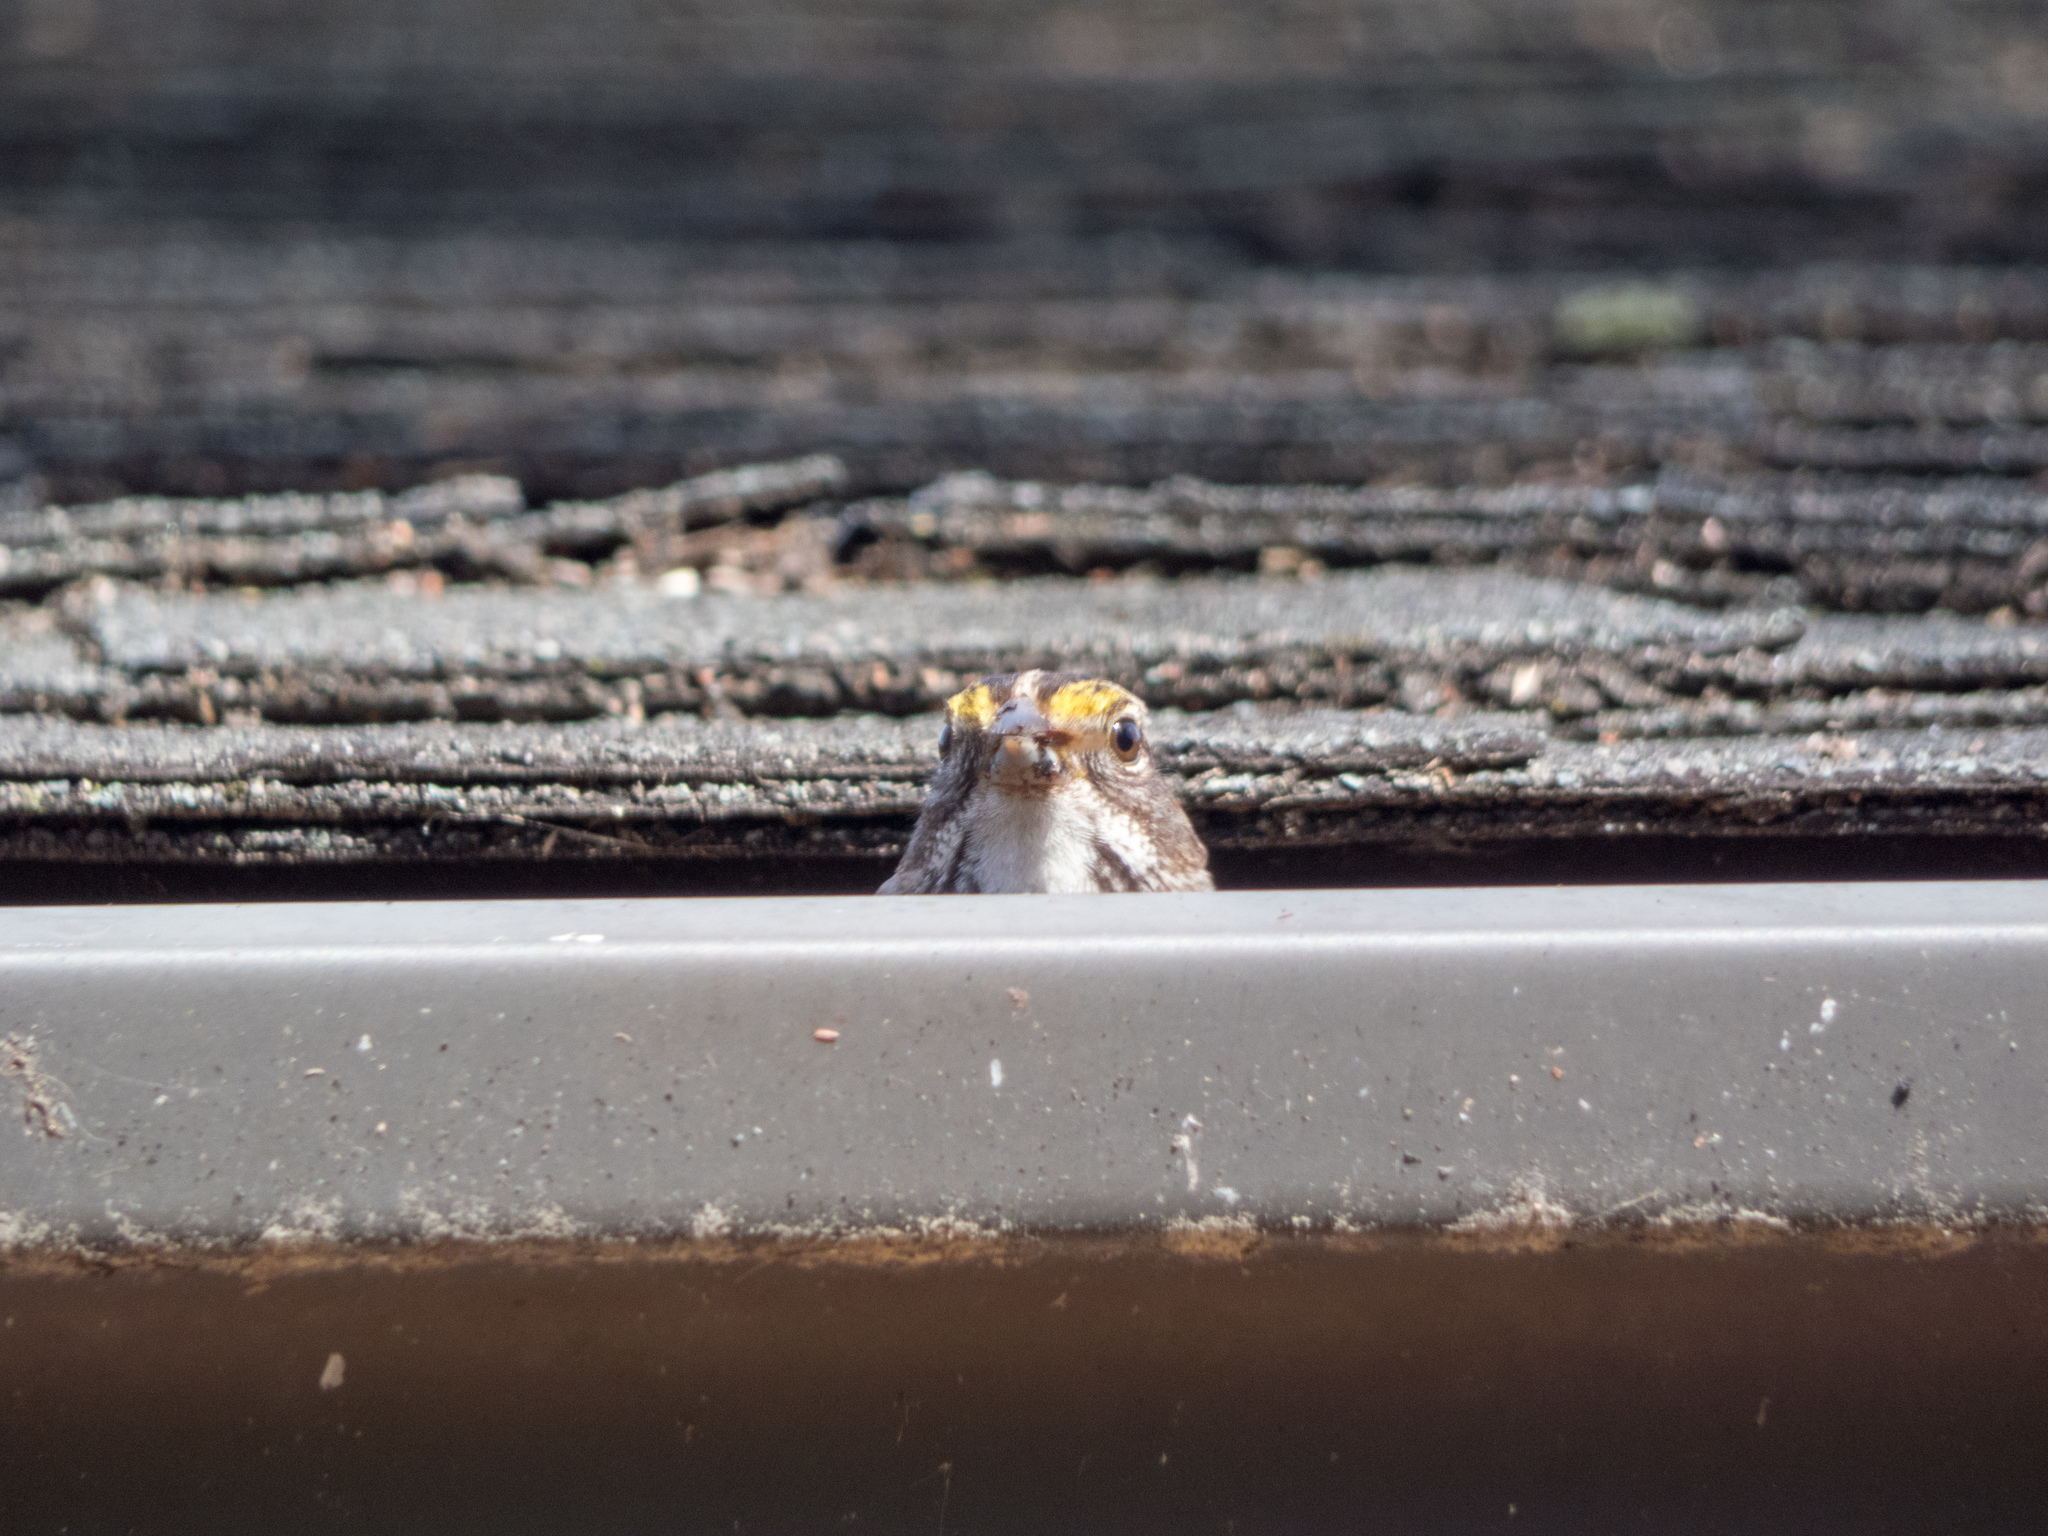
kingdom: Animalia
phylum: Chordata
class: Aves
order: Passeriformes
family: Passerellidae
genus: Zonotrichia
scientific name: Zonotrichia albicollis
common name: White-throated sparrow
